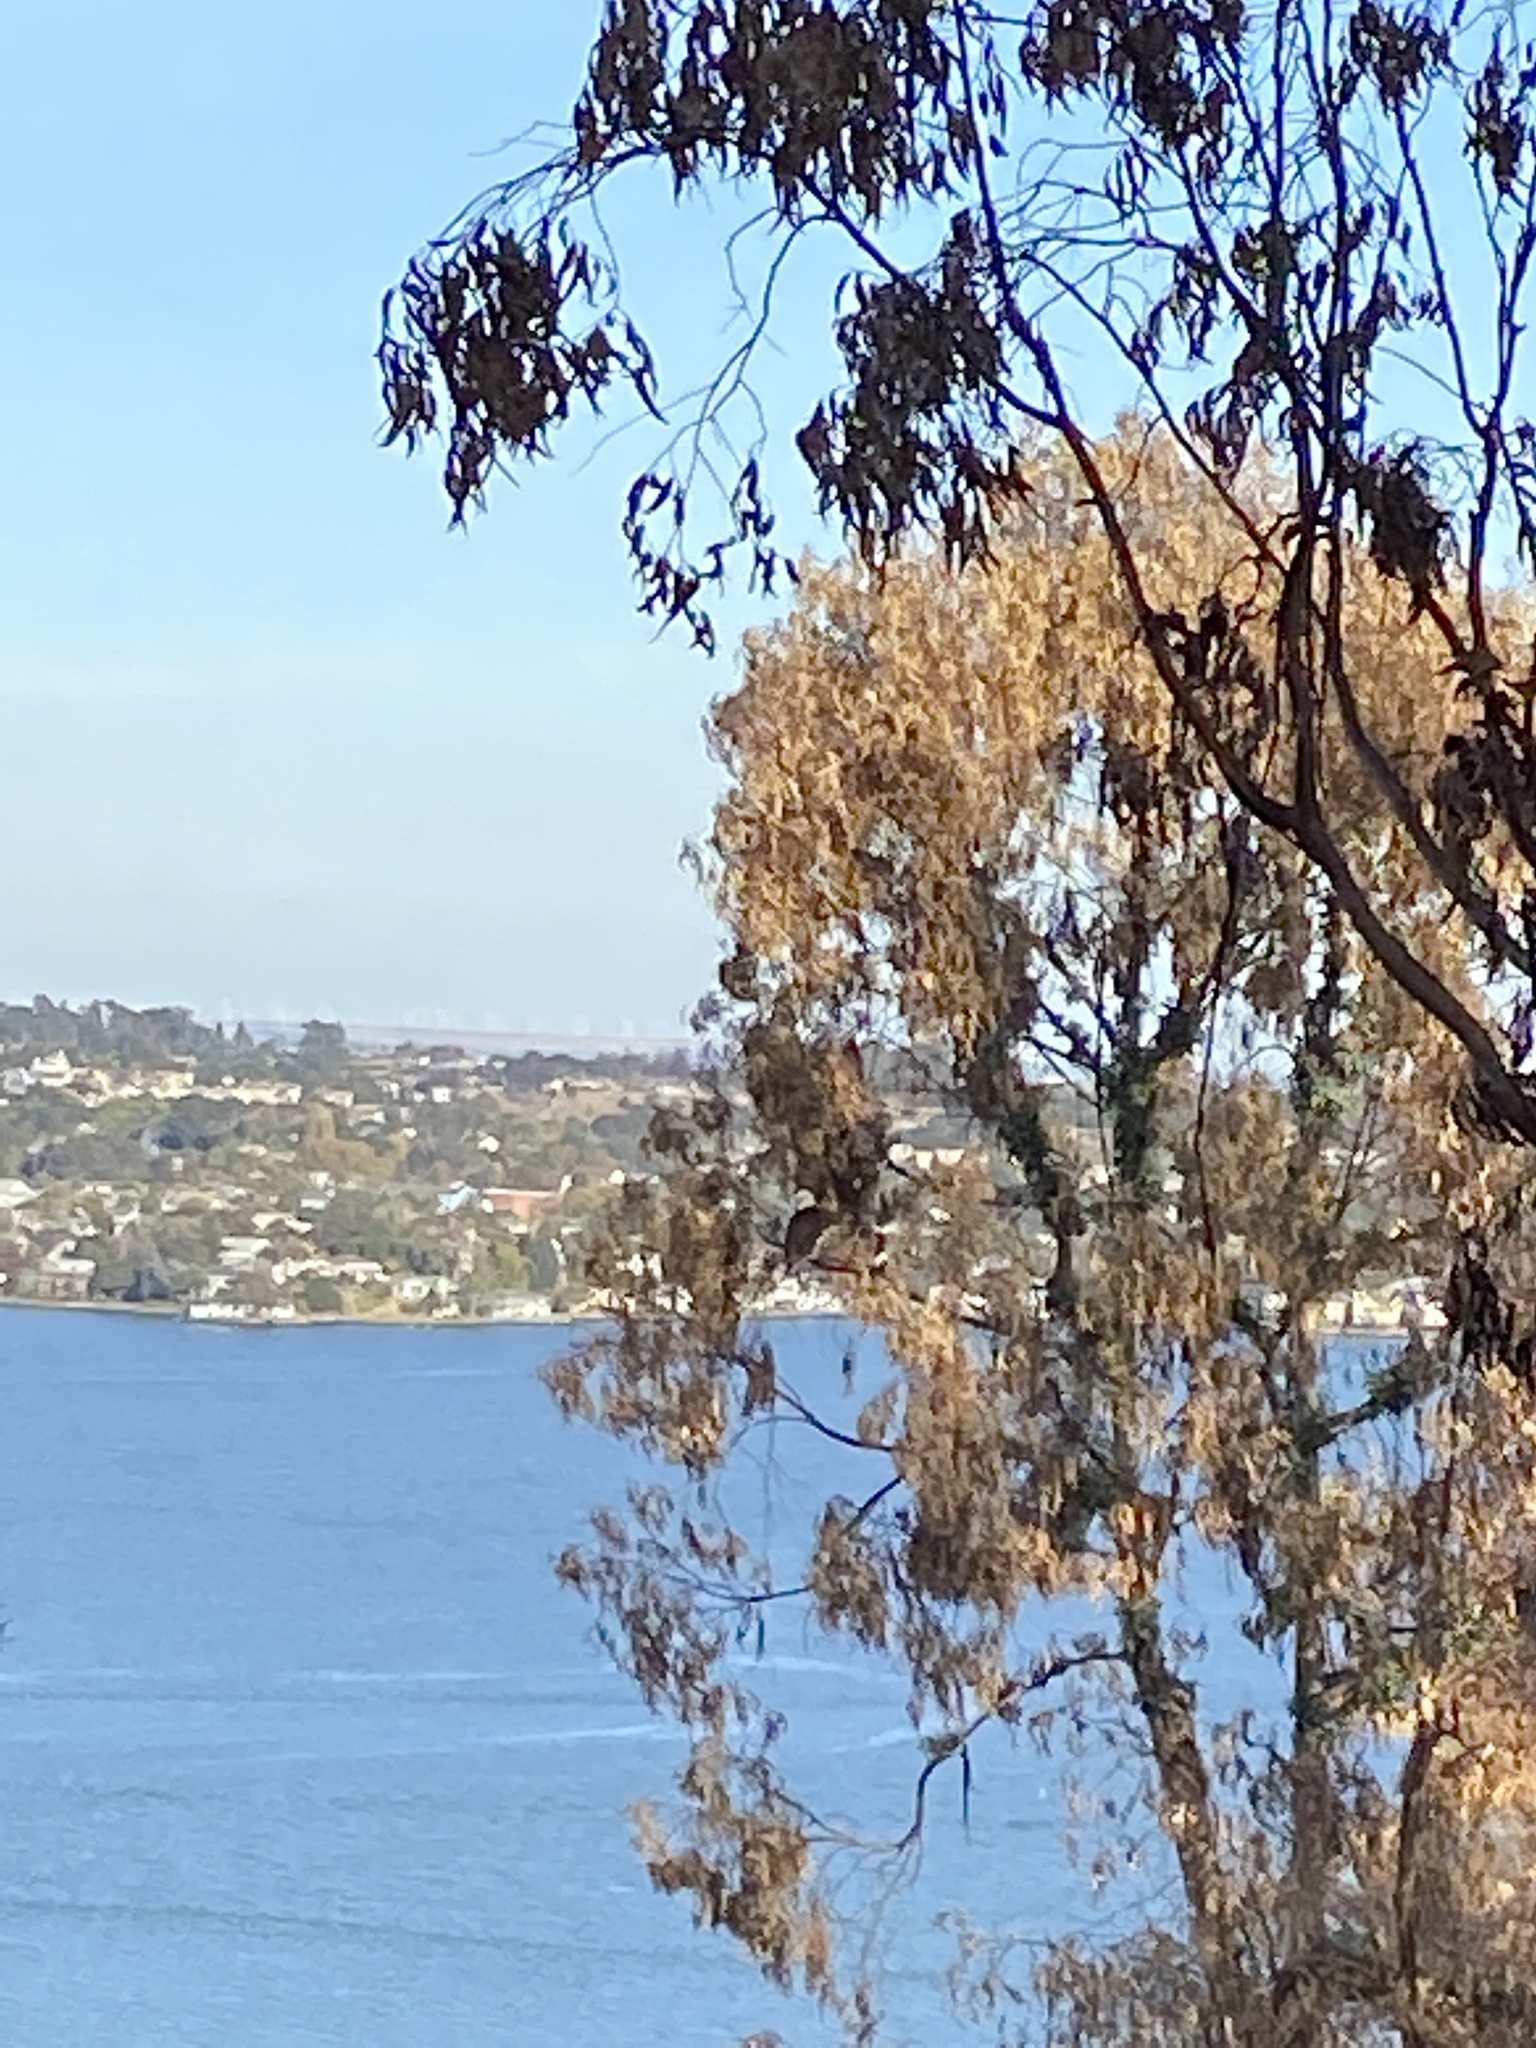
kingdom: Animalia
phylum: Chordata
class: Aves
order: Accipitriformes
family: Accipitridae
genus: Haliaeetus
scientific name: Haliaeetus leucocephalus
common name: Bald eagle
